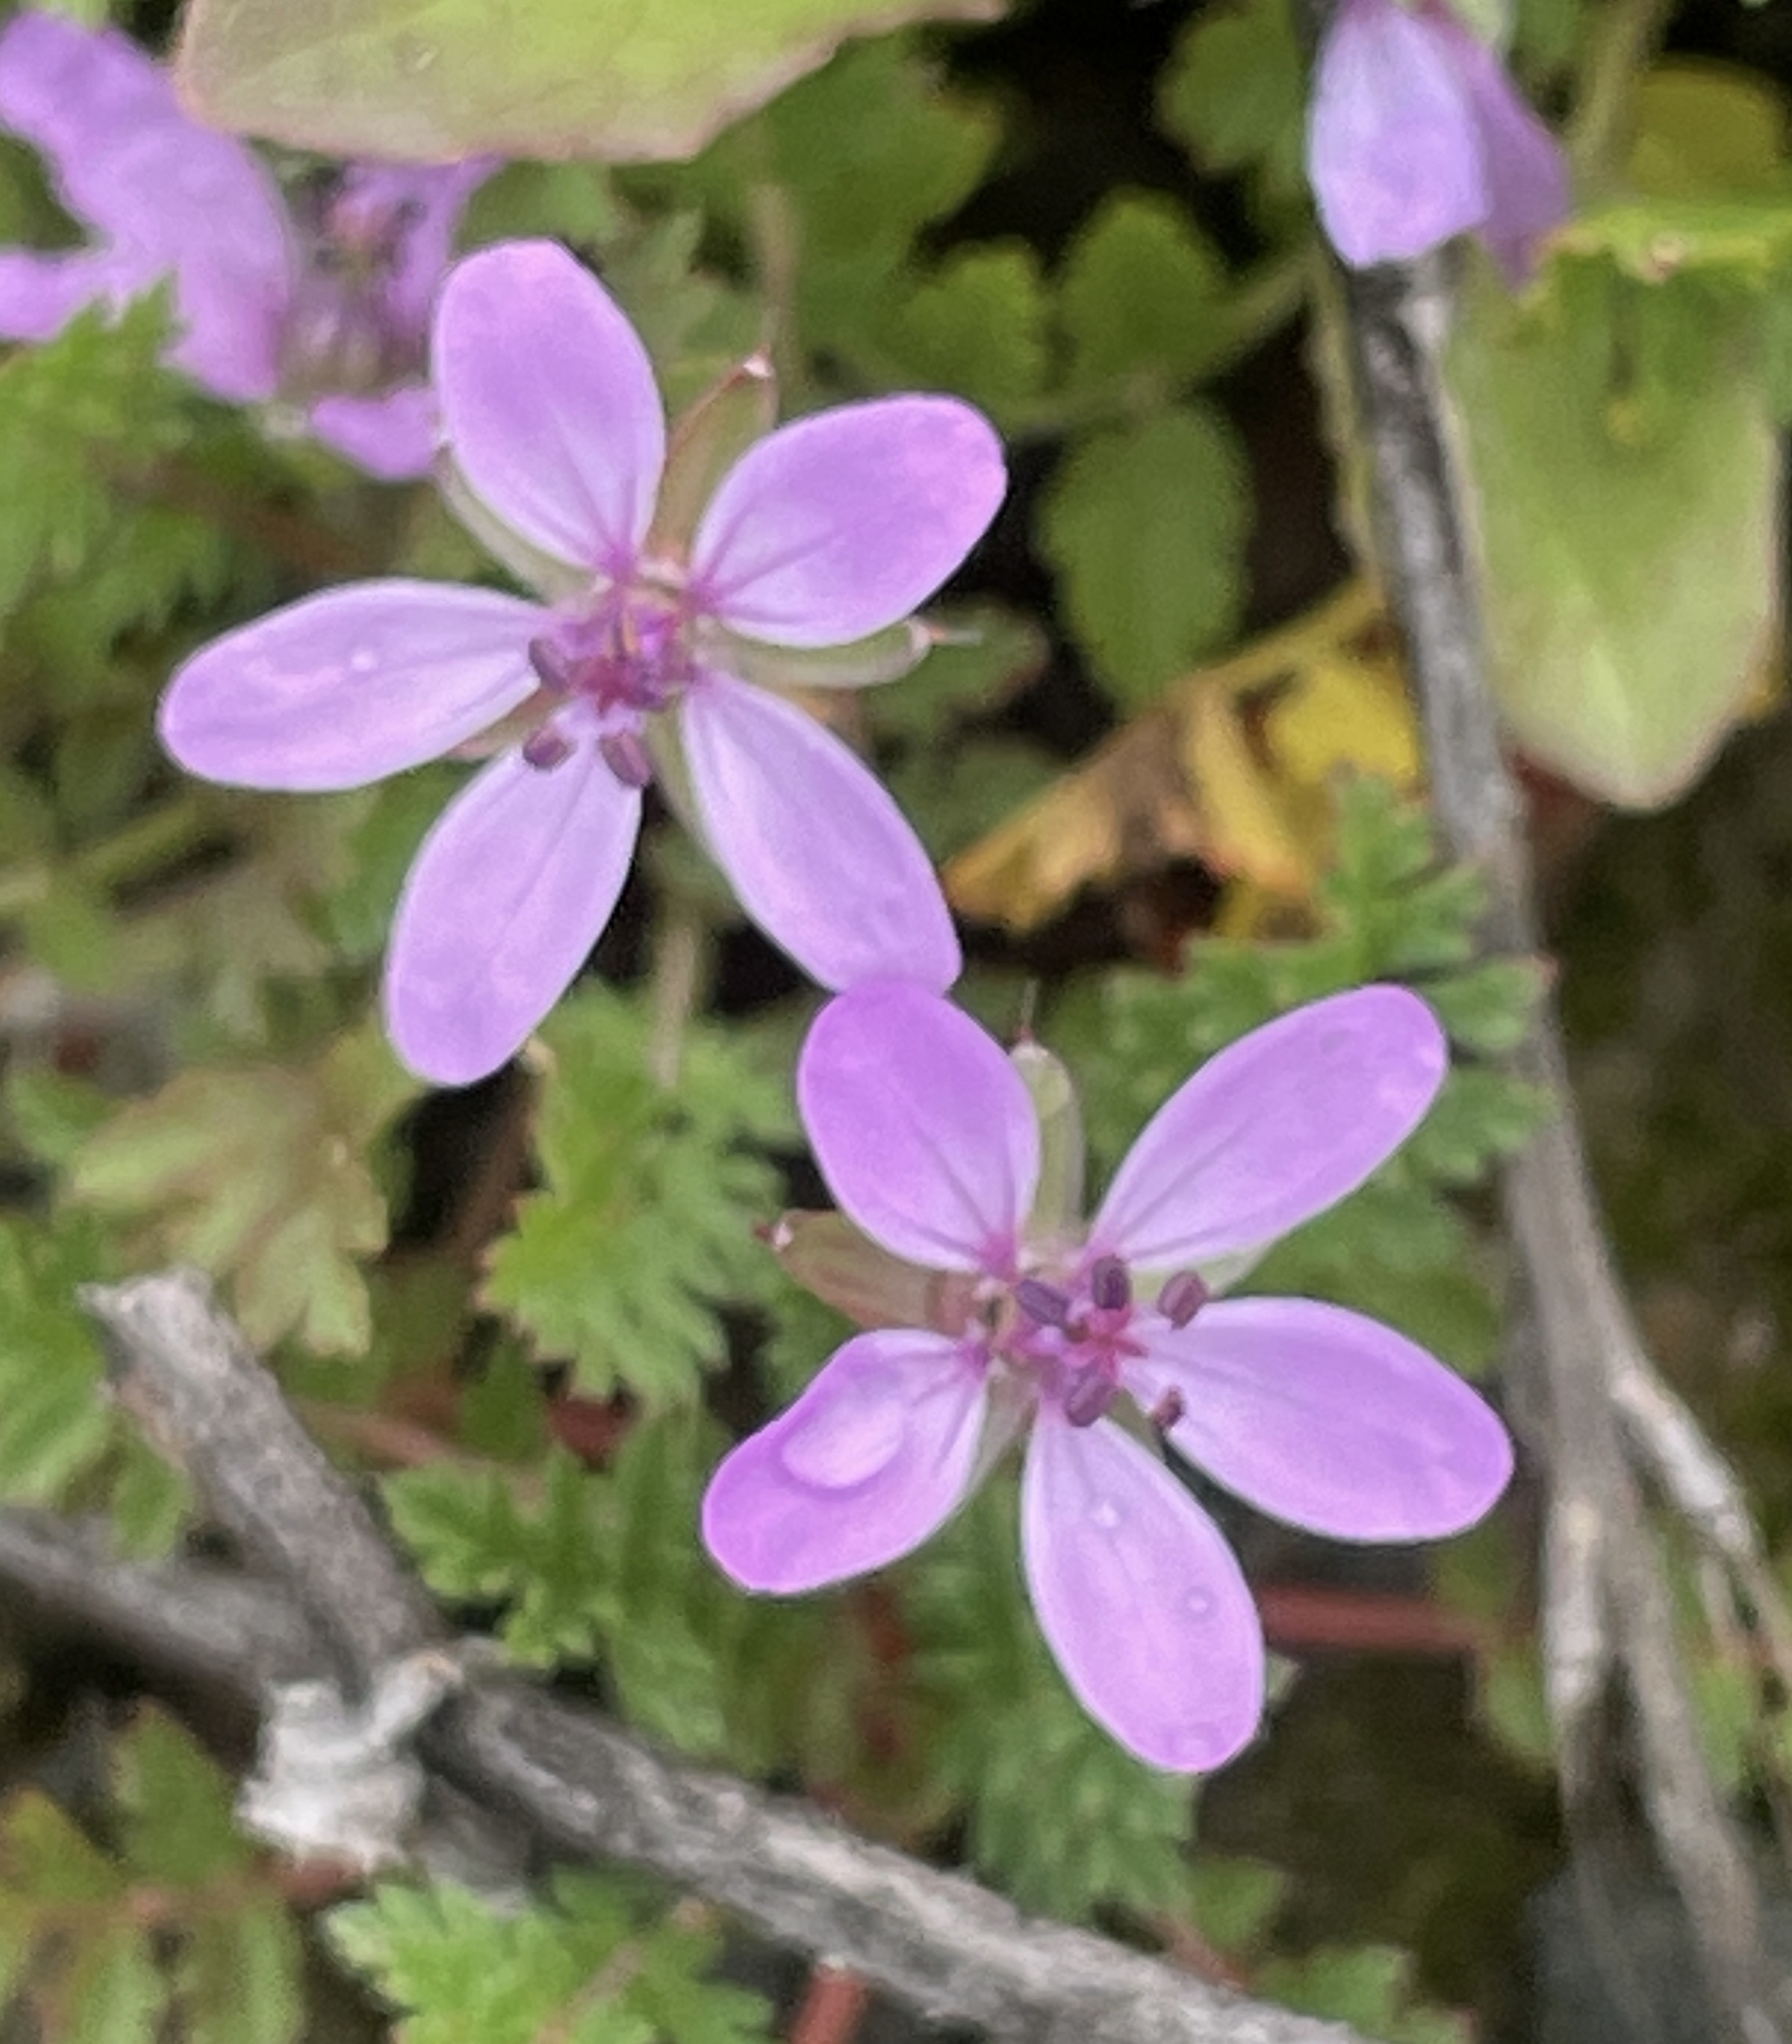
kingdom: Plantae
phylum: Tracheophyta
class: Magnoliopsida
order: Geraniales
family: Geraniaceae
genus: Erodium
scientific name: Erodium cicutarium
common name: Common stork's-bill
